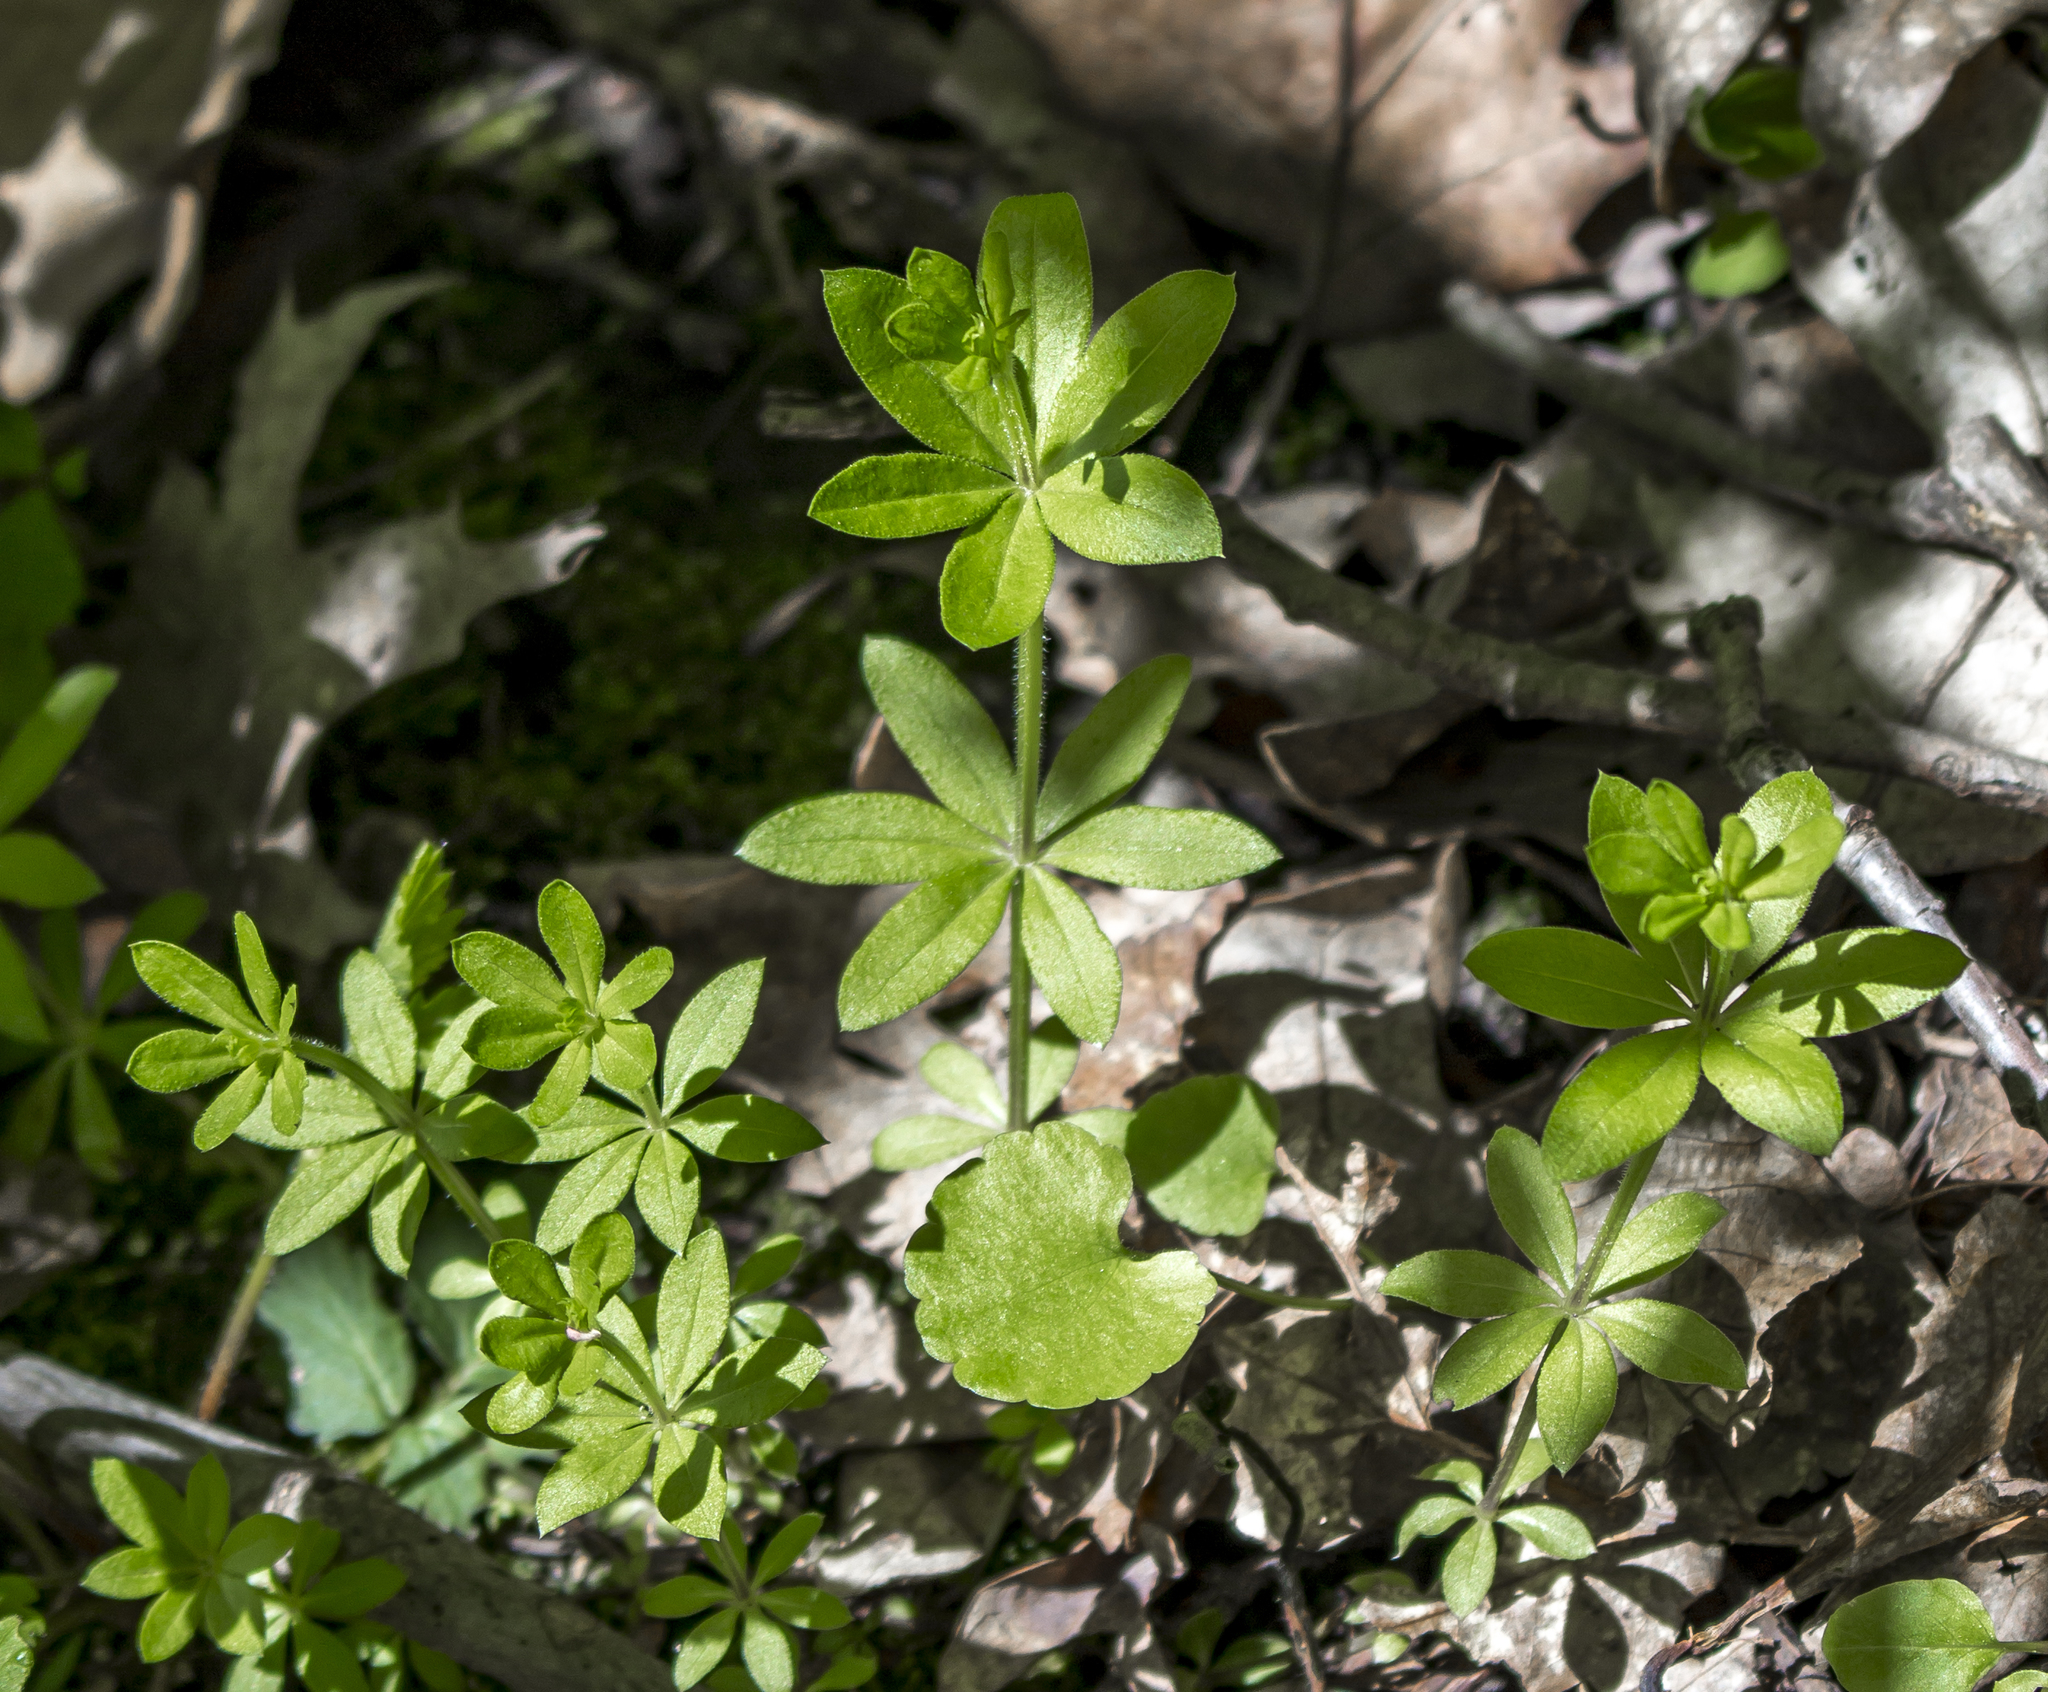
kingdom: Plantae
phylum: Tracheophyta
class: Magnoliopsida
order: Gentianales
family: Rubiaceae
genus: Galium
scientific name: Galium triflorum
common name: Fragrant bedstraw
